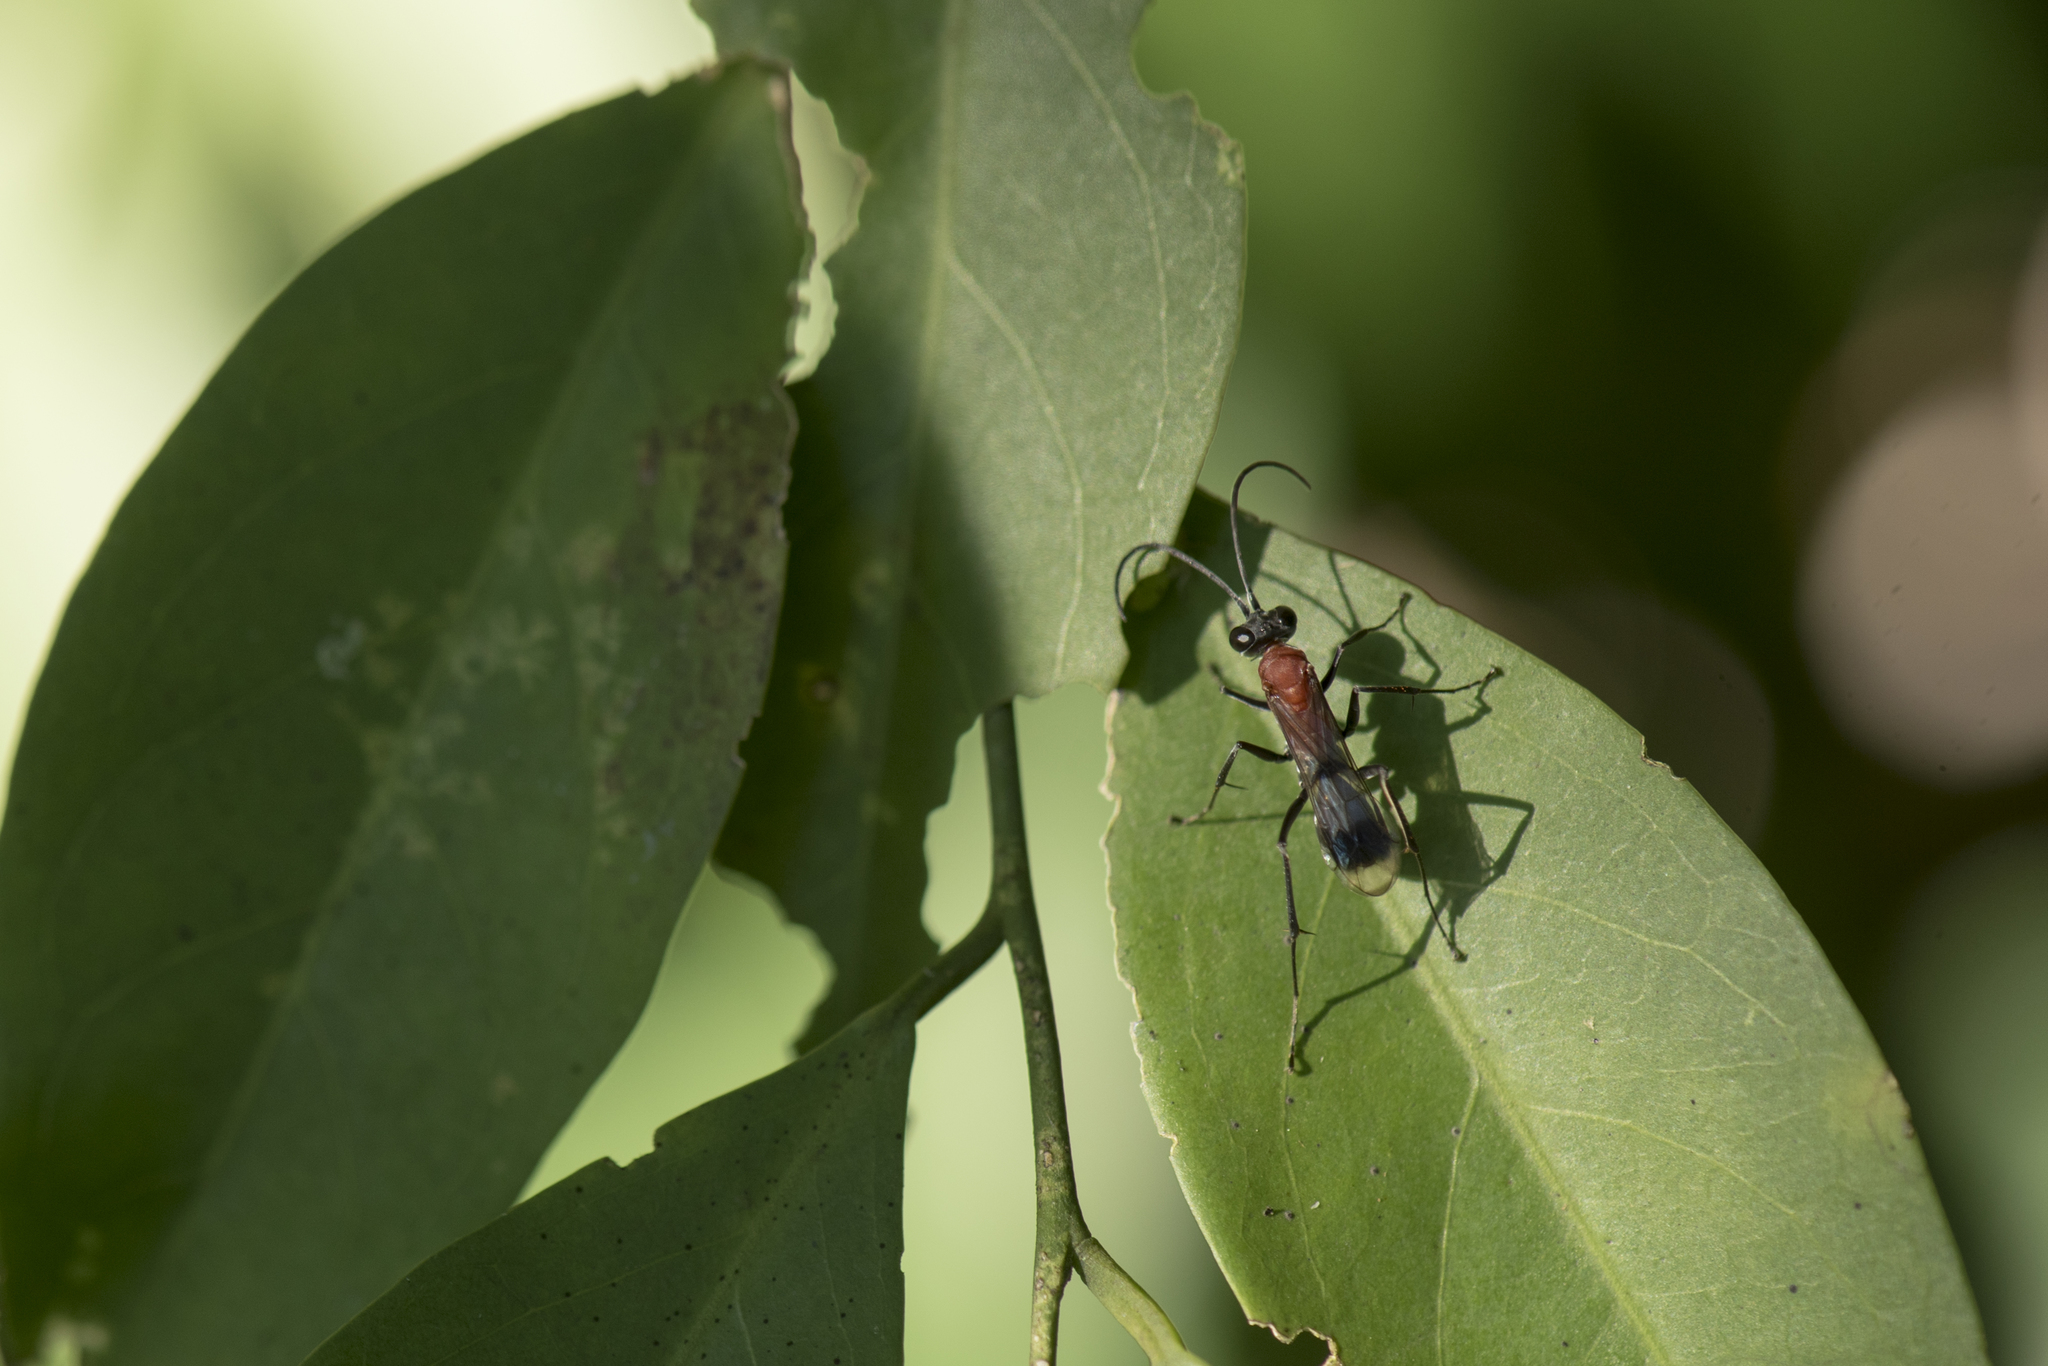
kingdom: Animalia
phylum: Arthropoda
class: Insecta
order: Hymenoptera
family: Pompilidae
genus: Auplopus
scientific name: Auplopus aegina
